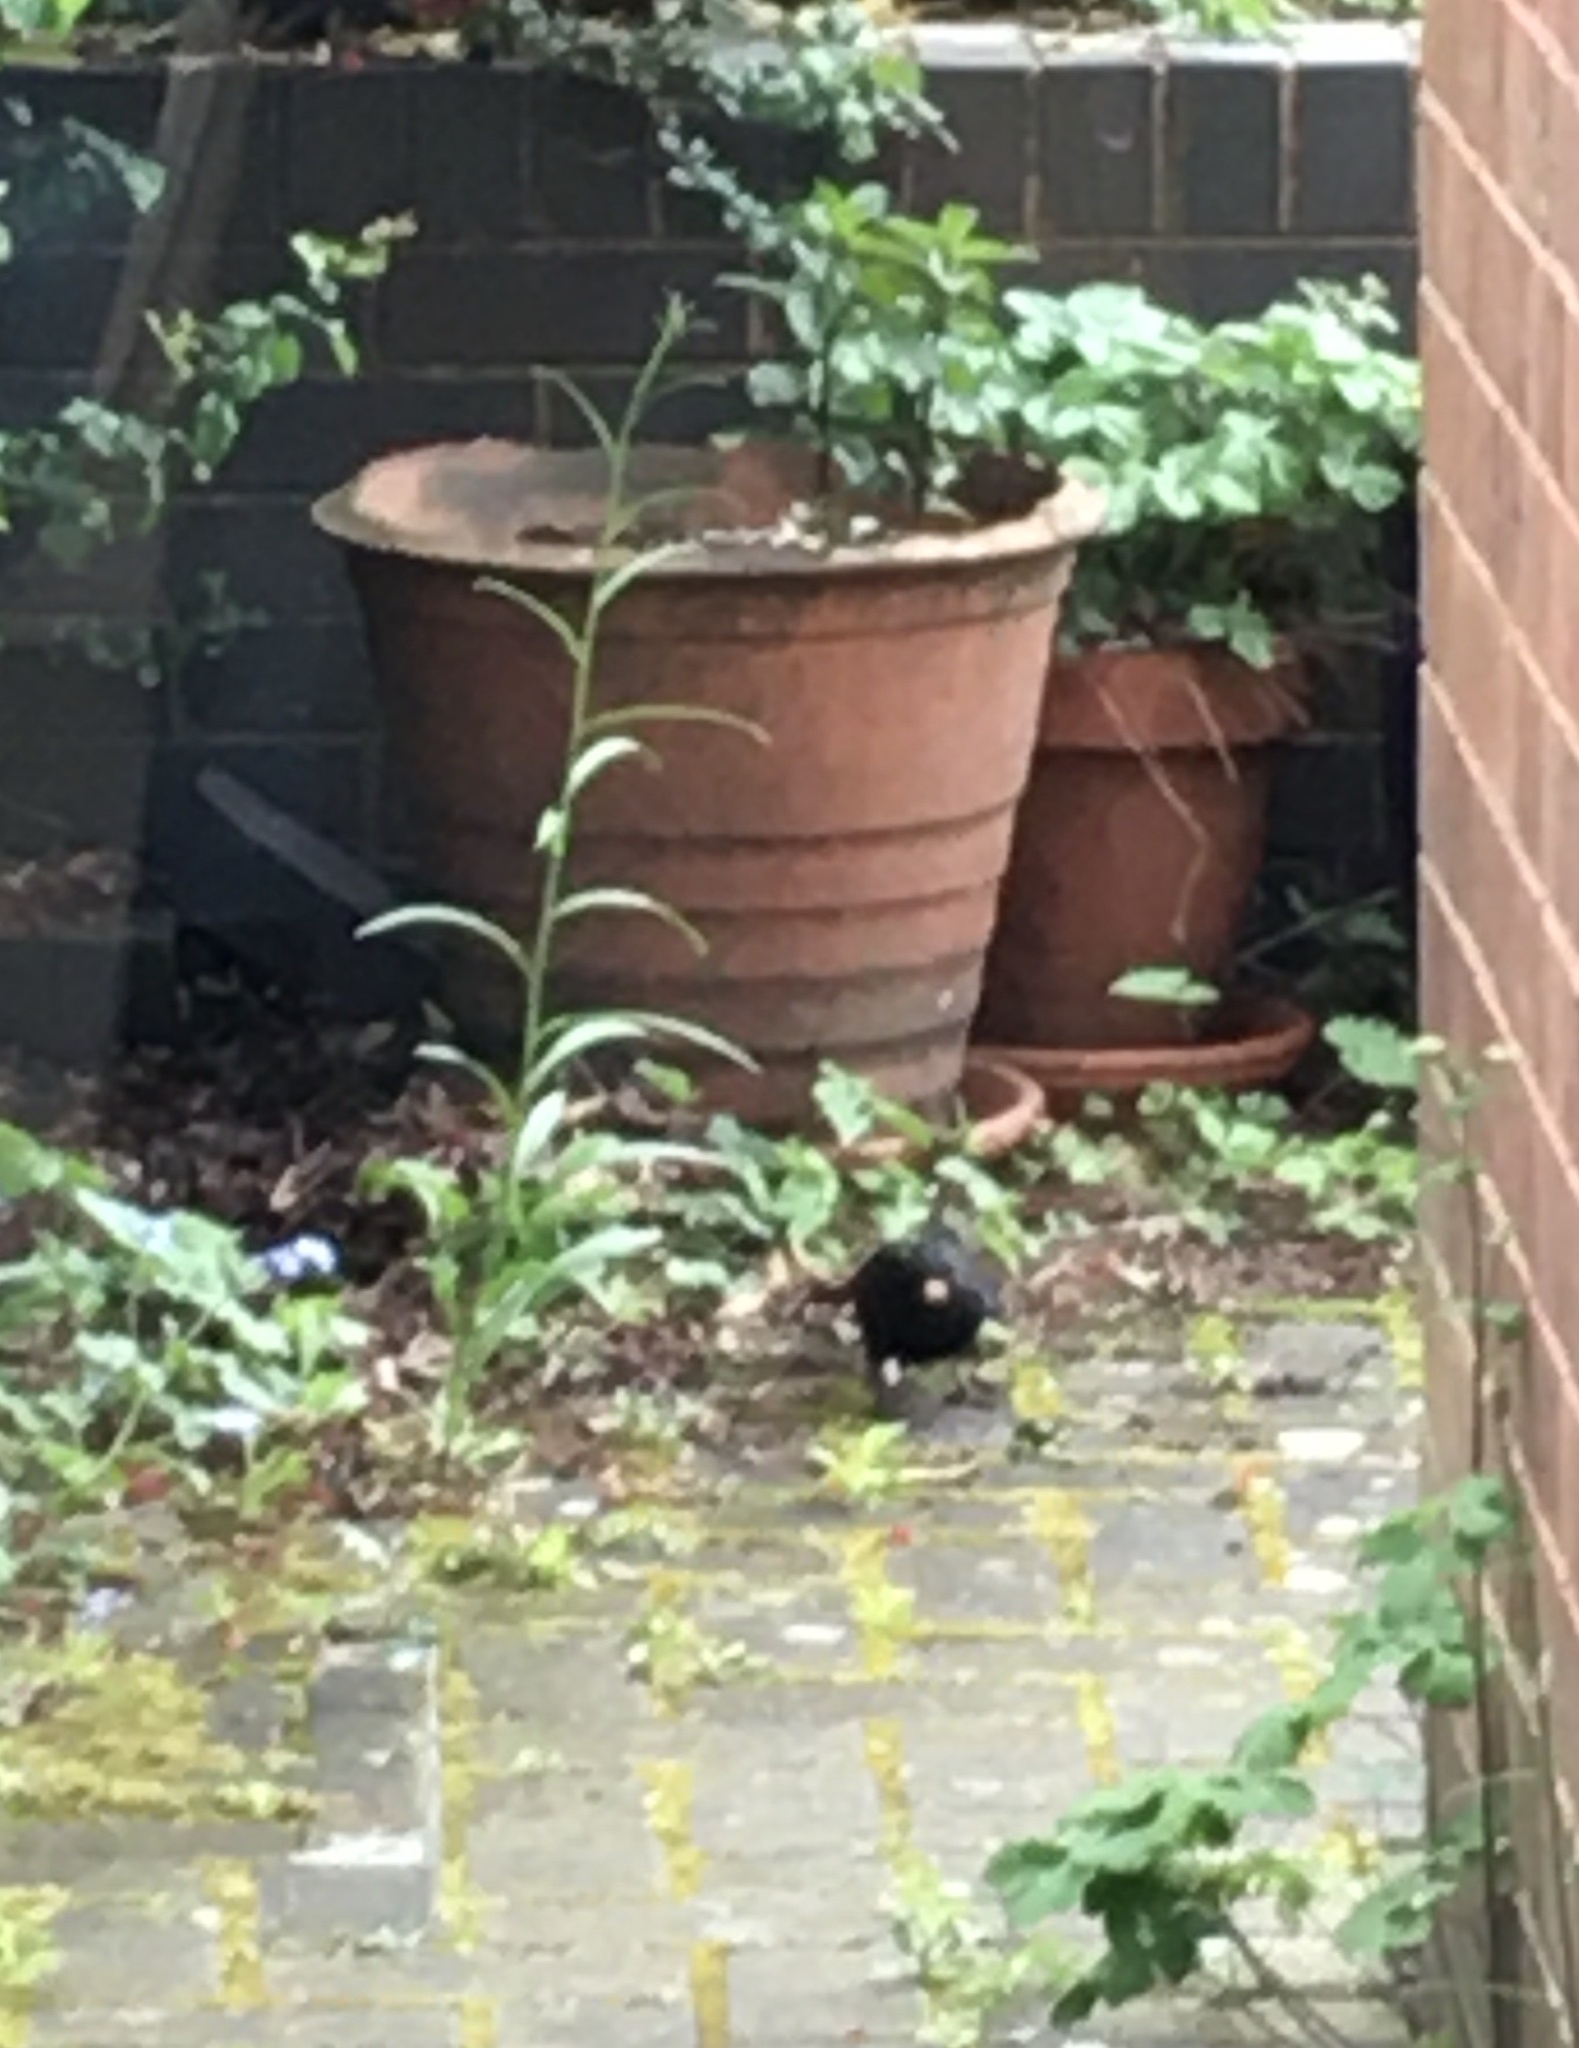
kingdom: Animalia
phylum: Chordata
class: Aves
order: Passeriformes
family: Turdidae
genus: Turdus
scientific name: Turdus merula
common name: Common blackbird
